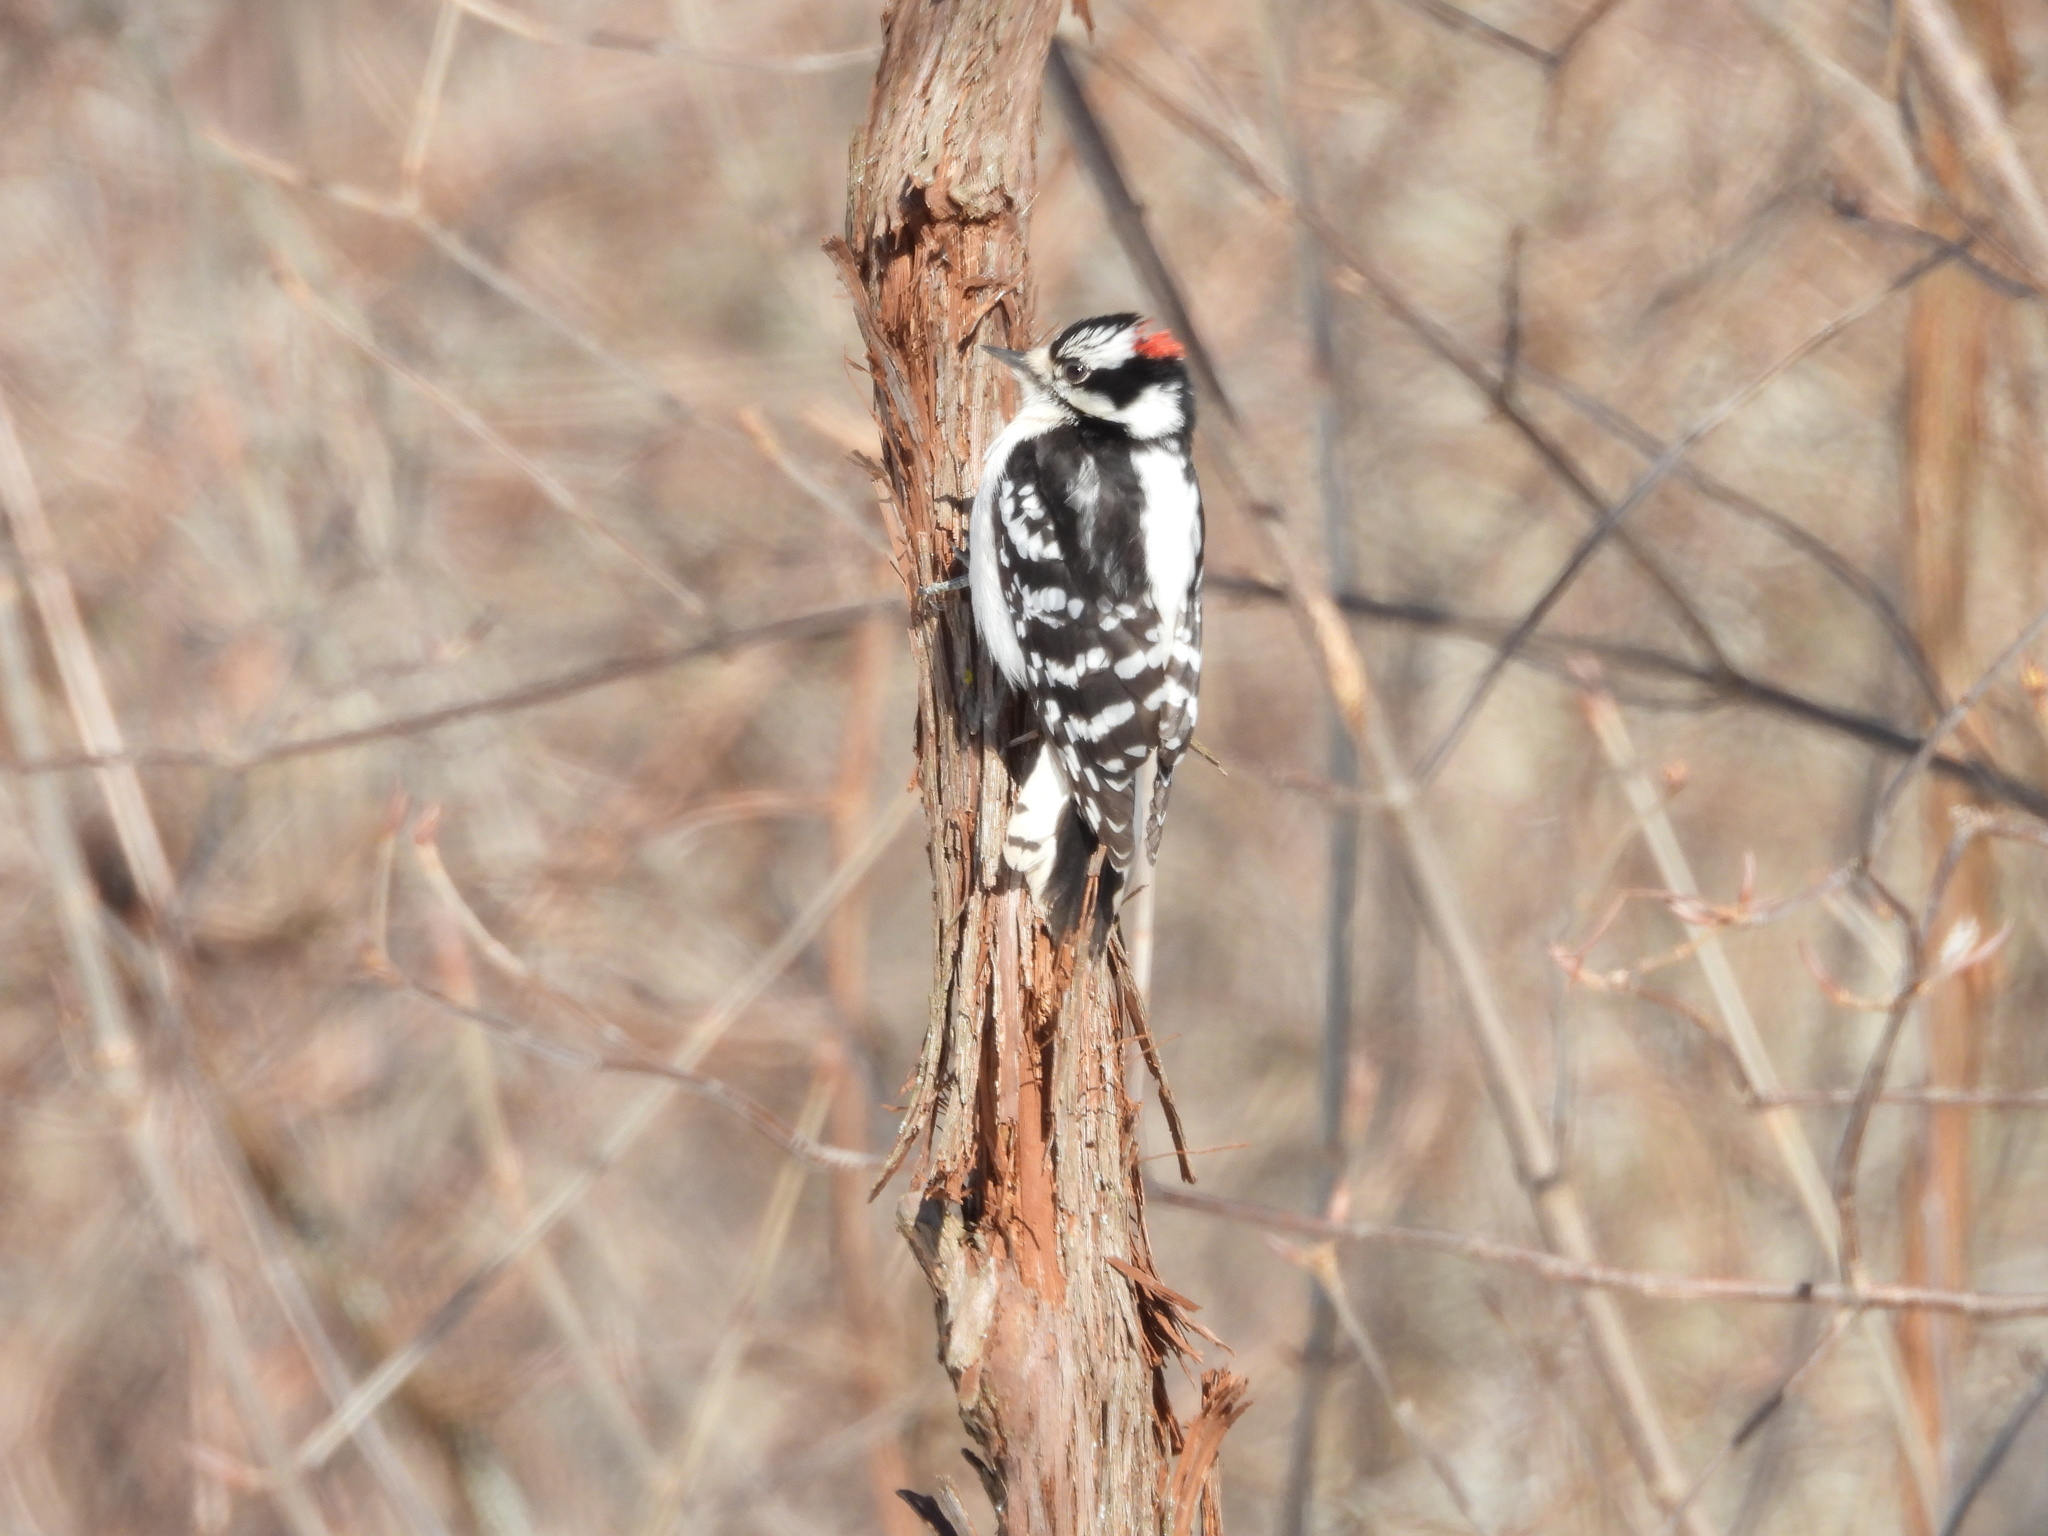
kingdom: Animalia
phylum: Chordata
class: Aves
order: Piciformes
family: Picidae
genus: Dryobates
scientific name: Dryobates pubescens
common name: Downy woodpecker
